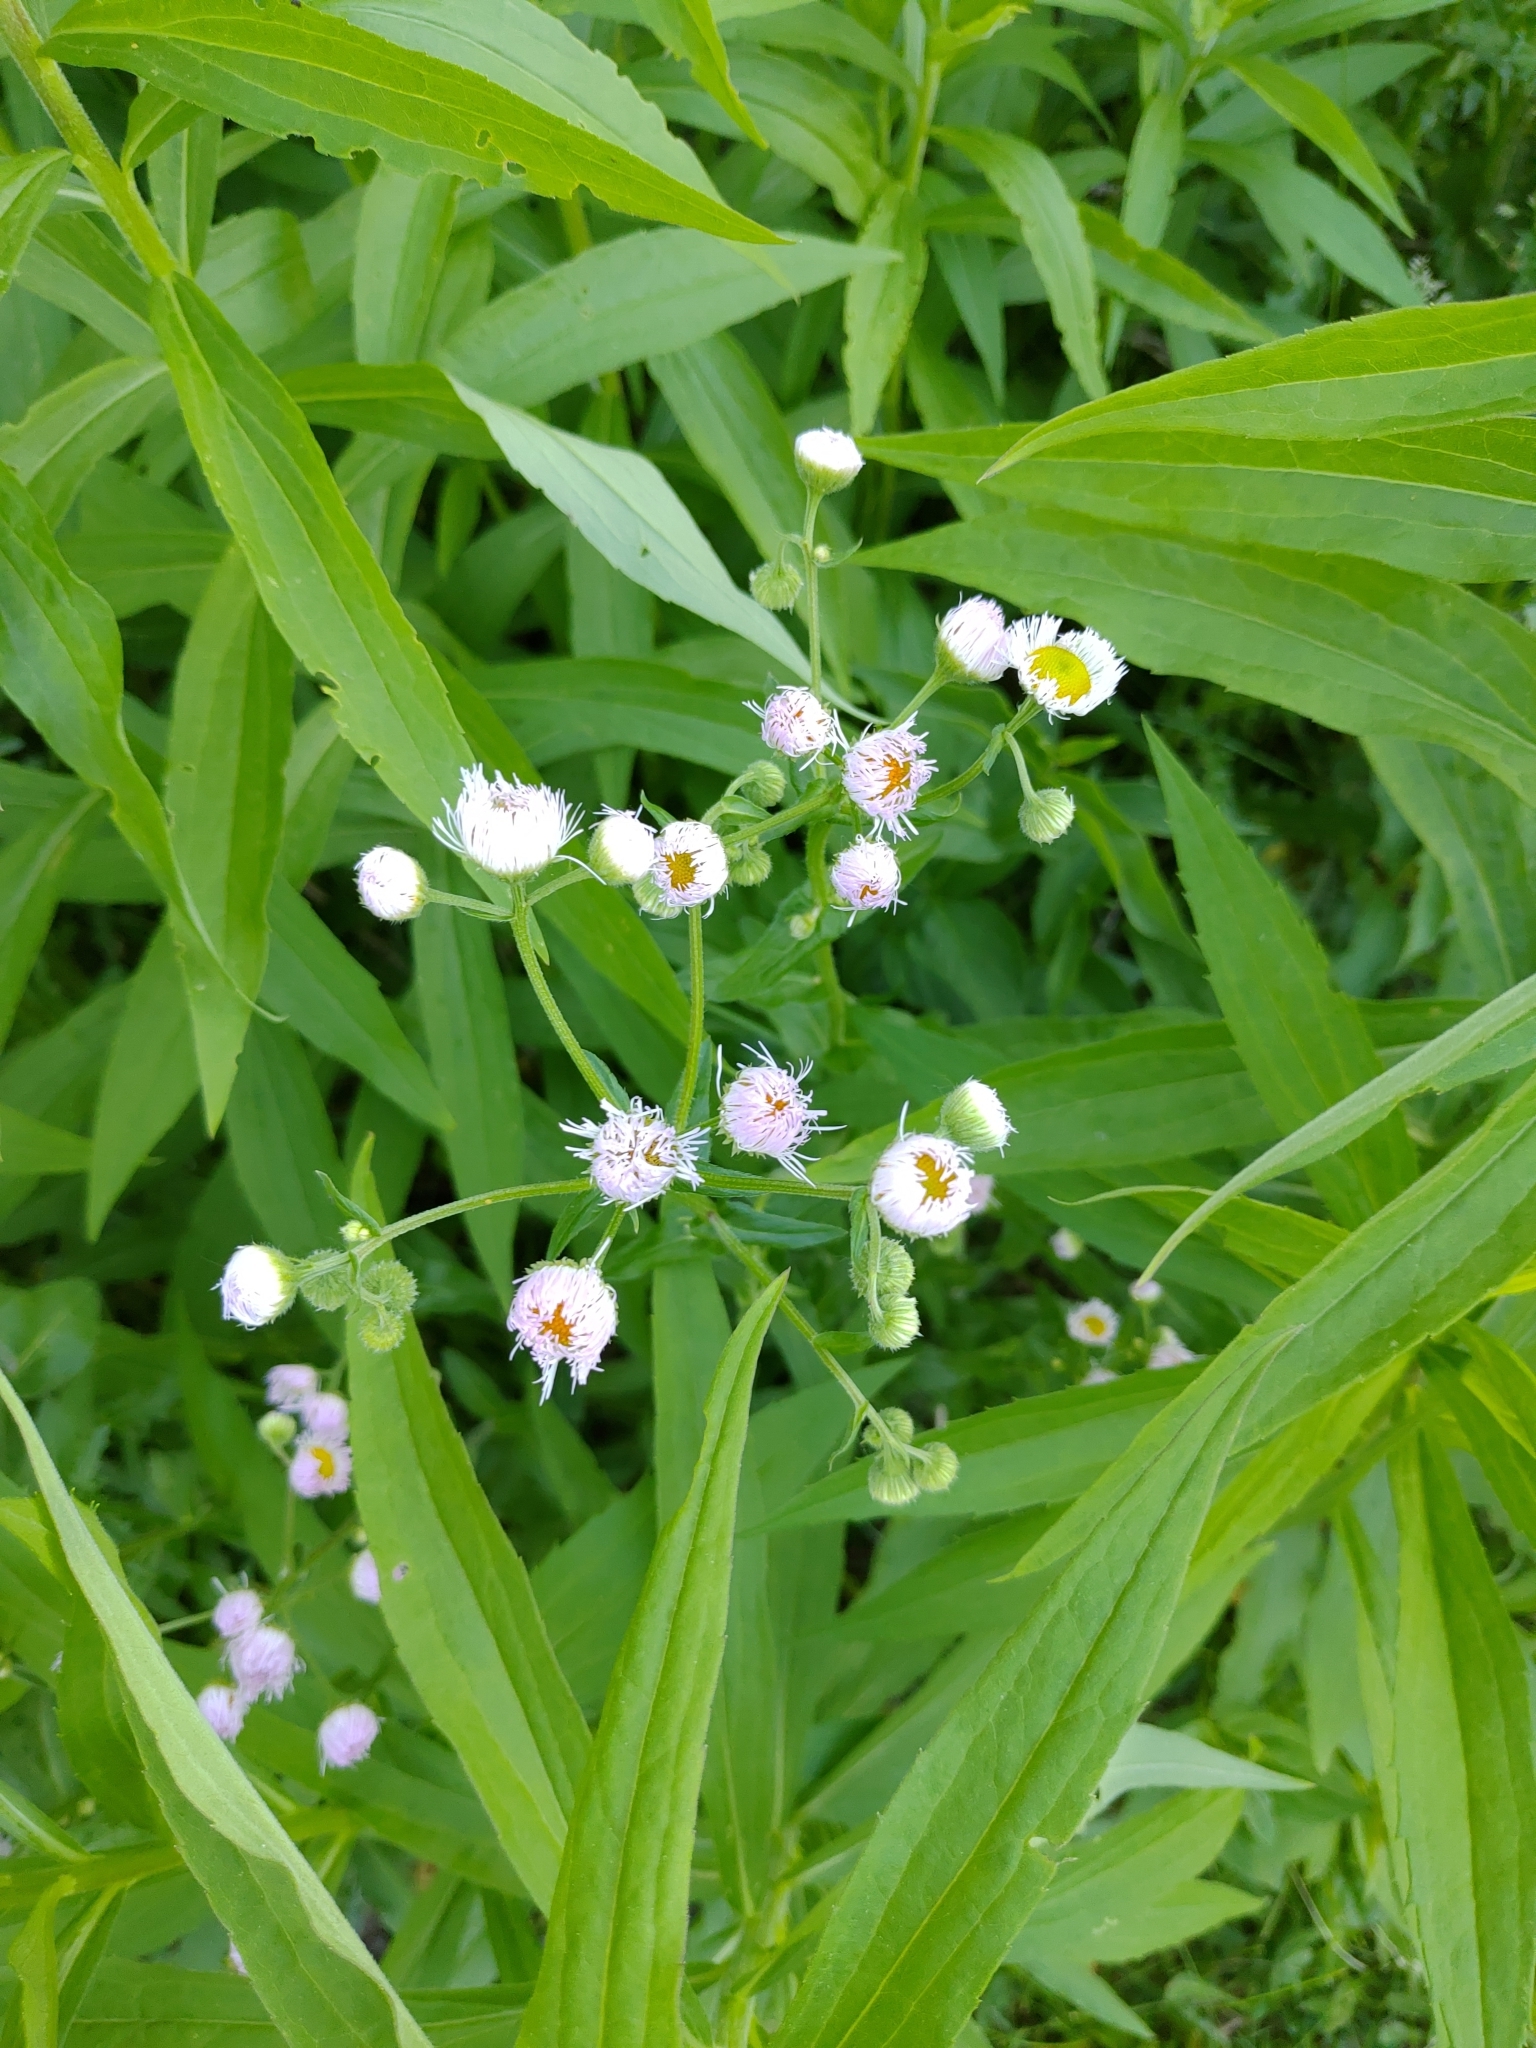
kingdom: Plantae
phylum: Tracheophyta
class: Magnoliopsida
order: Asterales
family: Asteraceae
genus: Erigeron
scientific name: Erigeron philadelphicus
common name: Robin's-plantain
